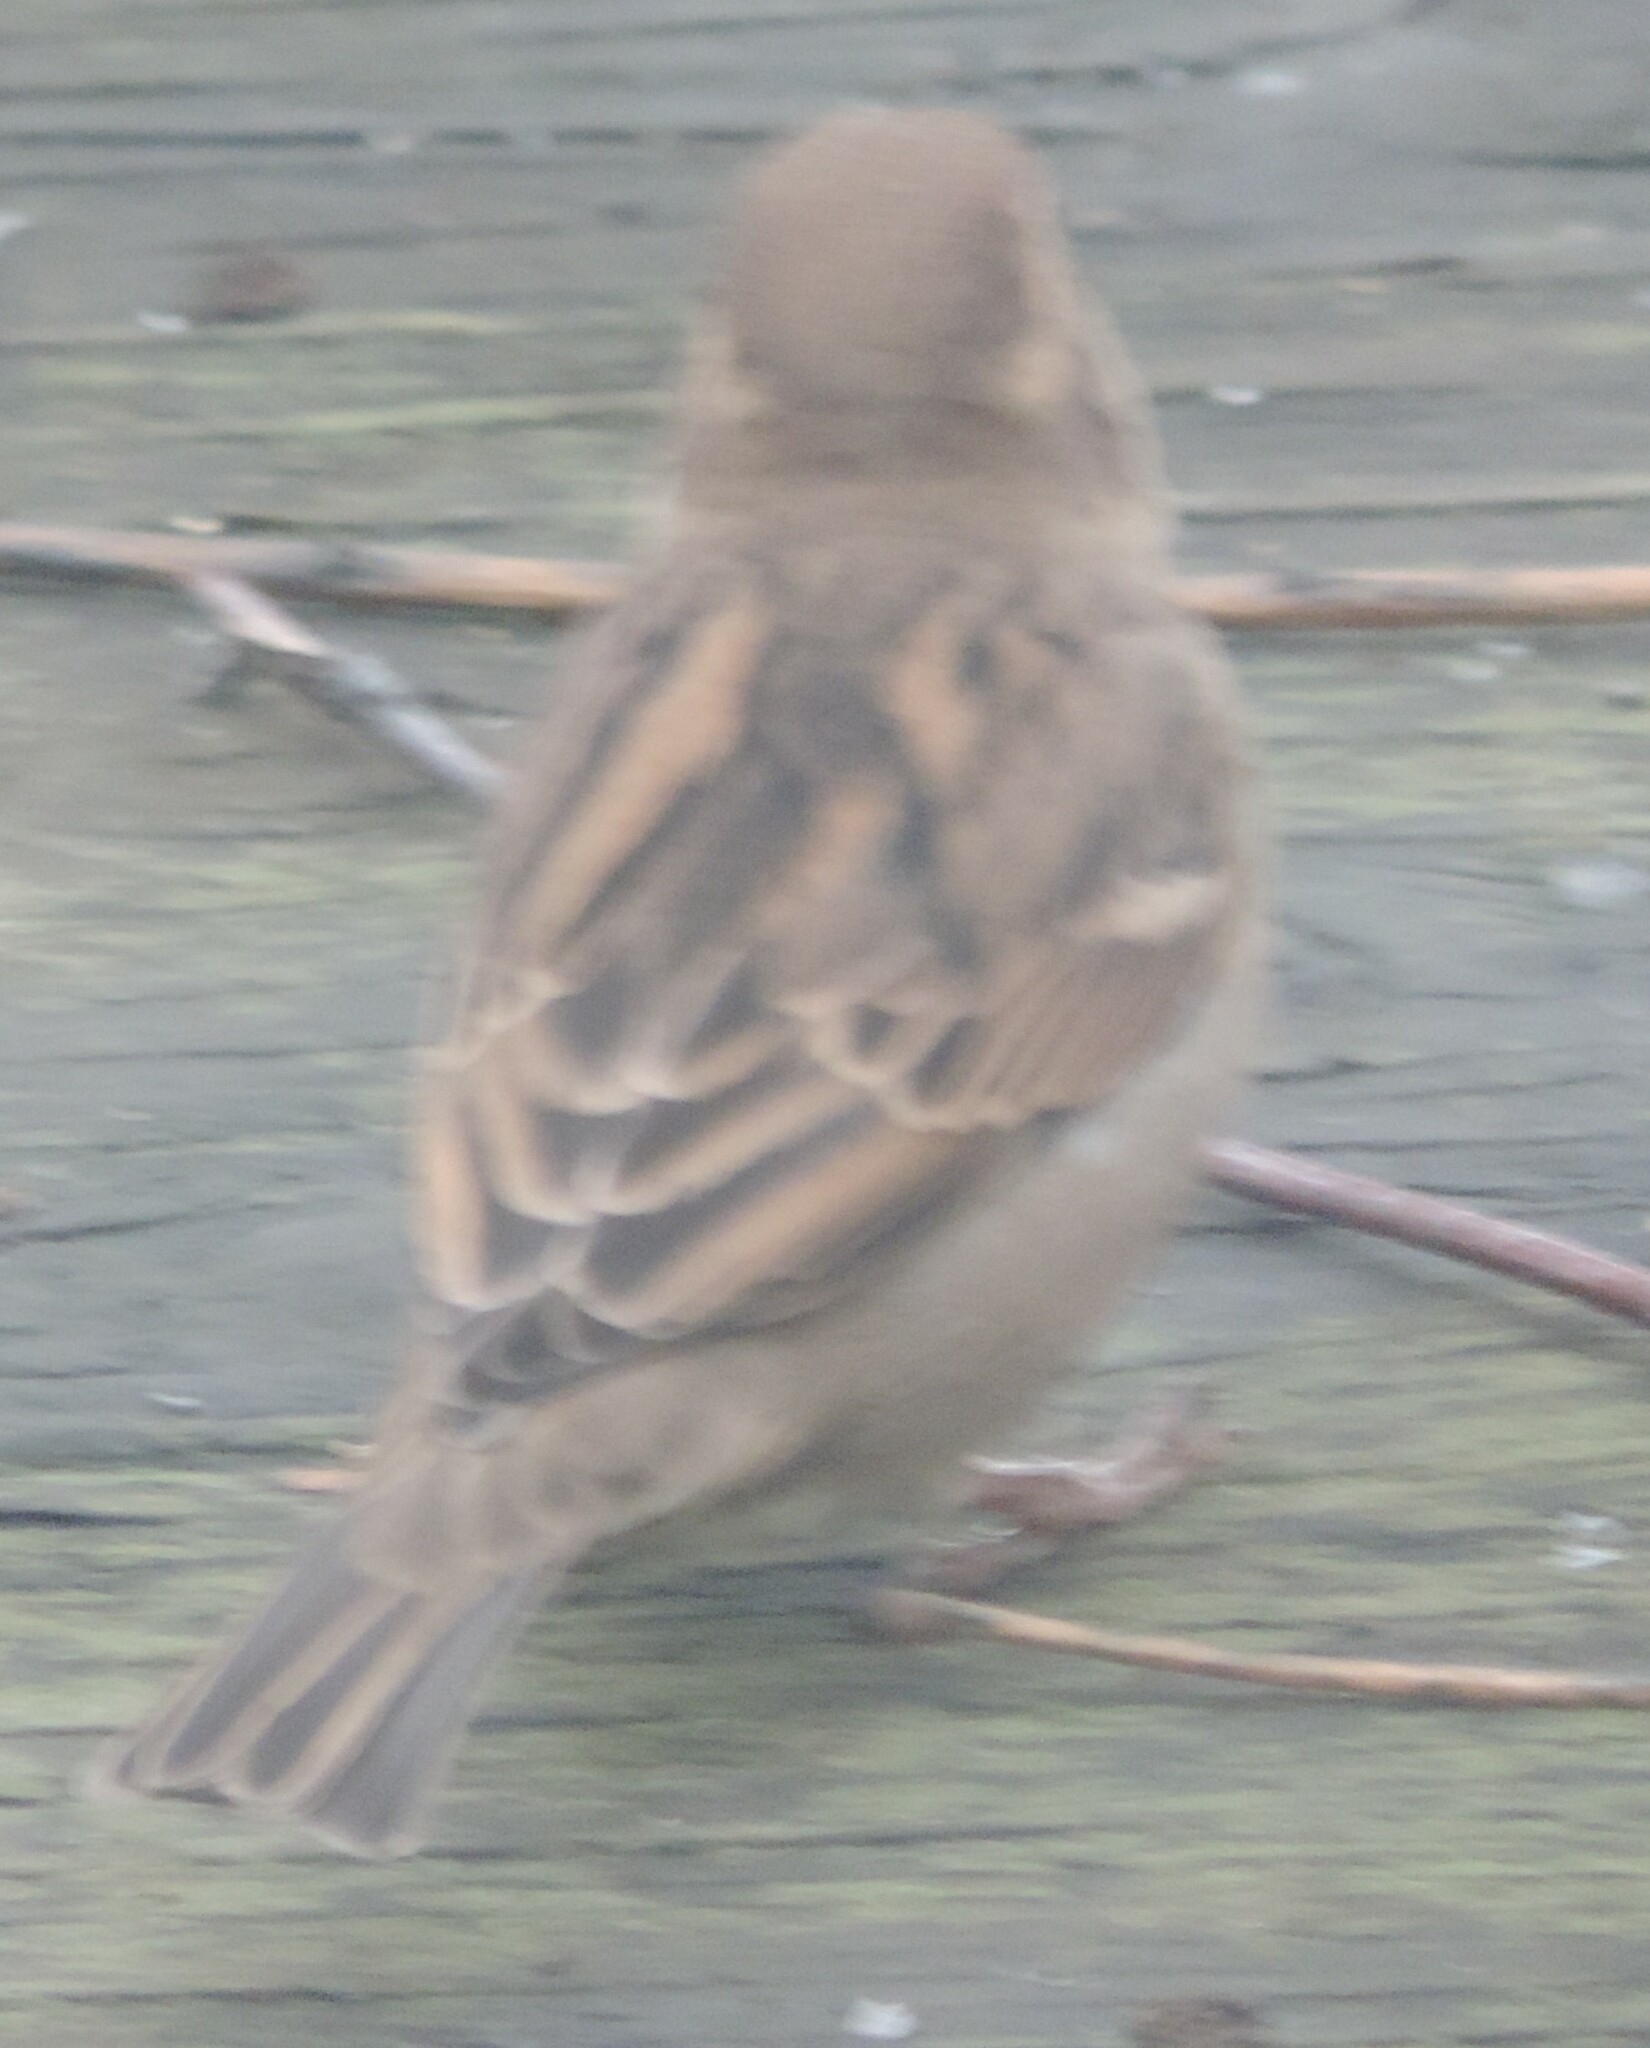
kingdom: Animalia
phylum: Chordata
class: Aves
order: Passeriformes
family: Passeridae
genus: Passer
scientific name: Passer domesticus
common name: House sparrow
